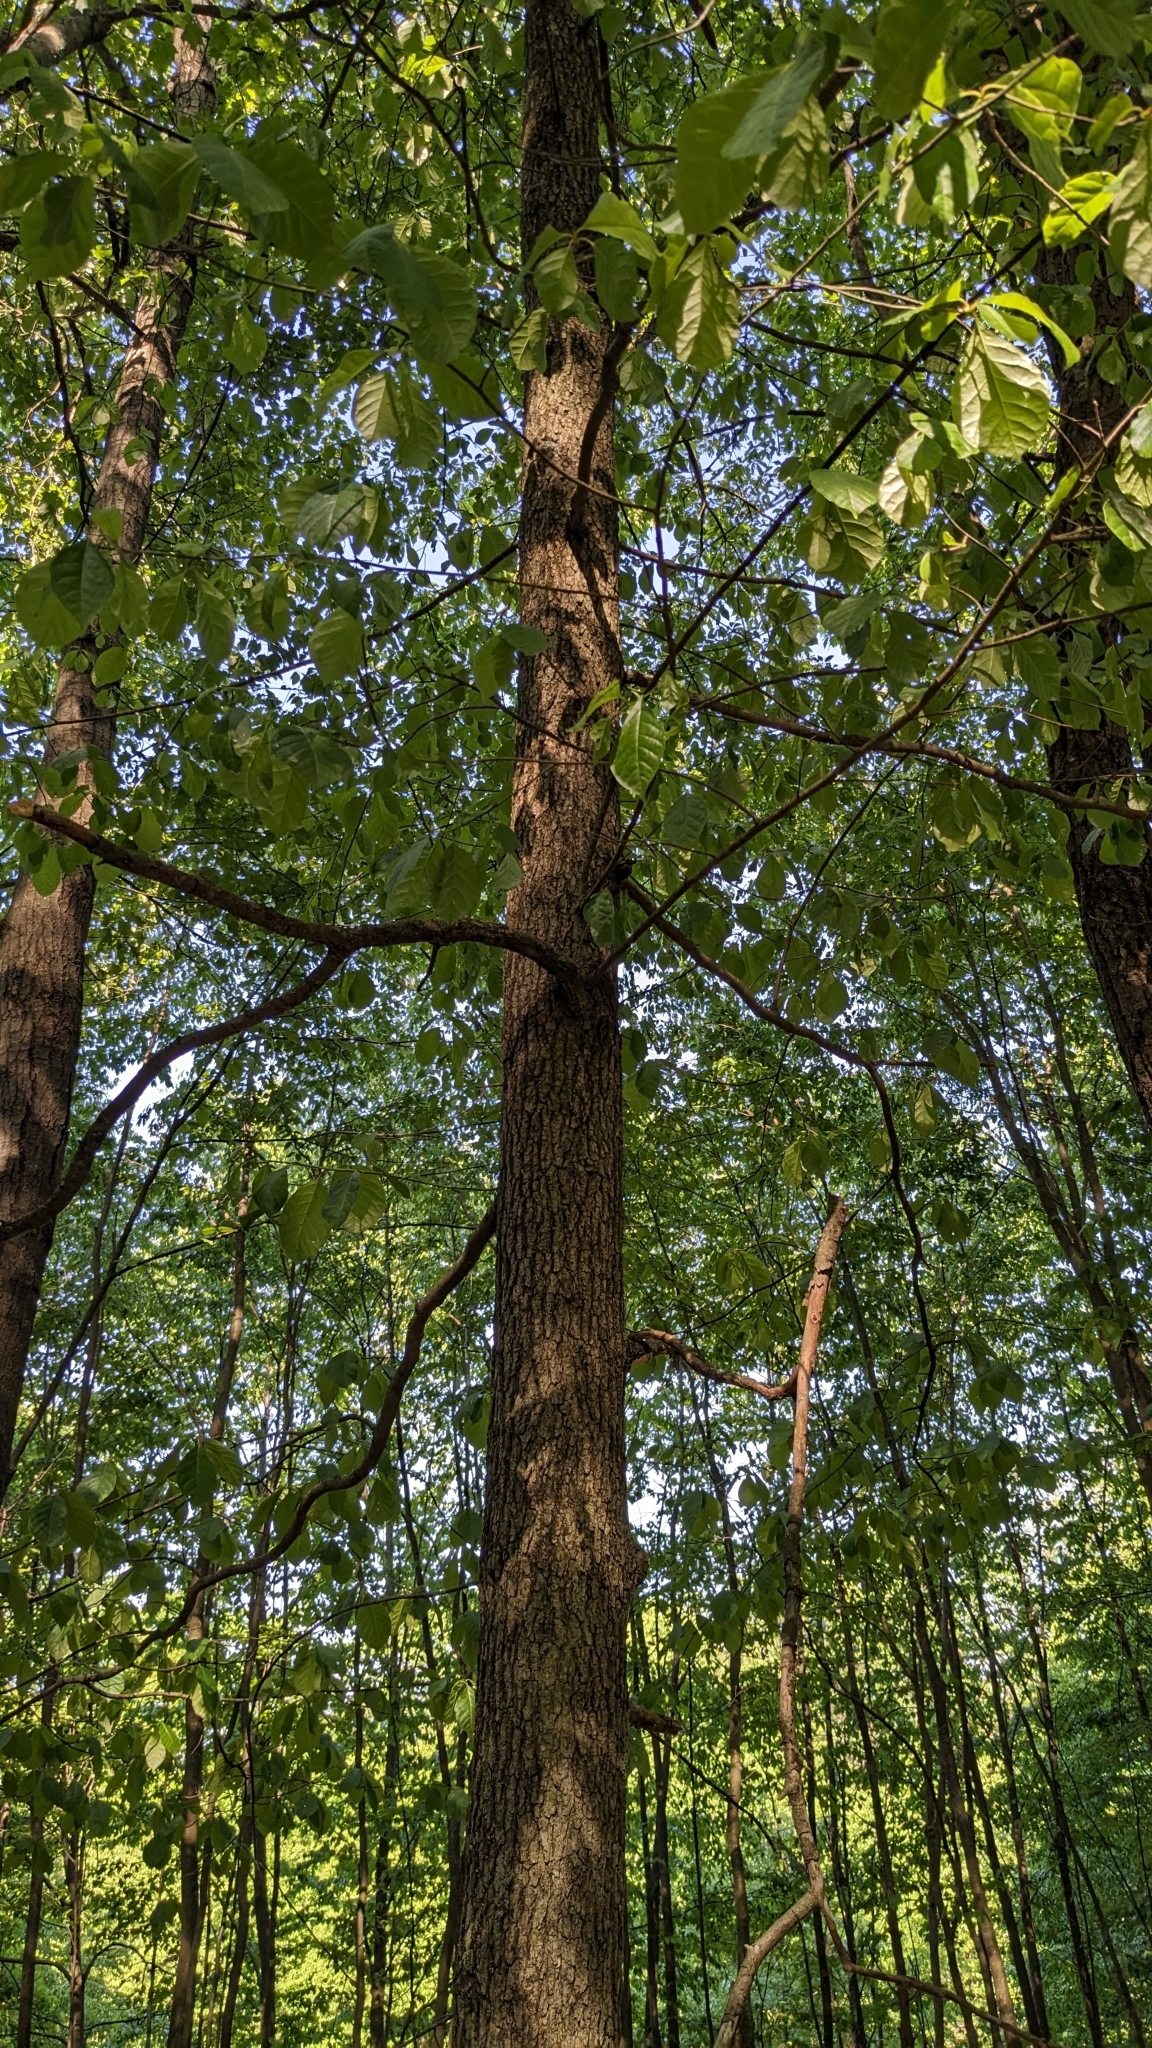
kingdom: Plantae
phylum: Tracheophyta
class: Magnoliopsida
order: Cornales
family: Nyssaceae
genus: Nyssa
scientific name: Nyssa sylvatica
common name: Black tupelo
